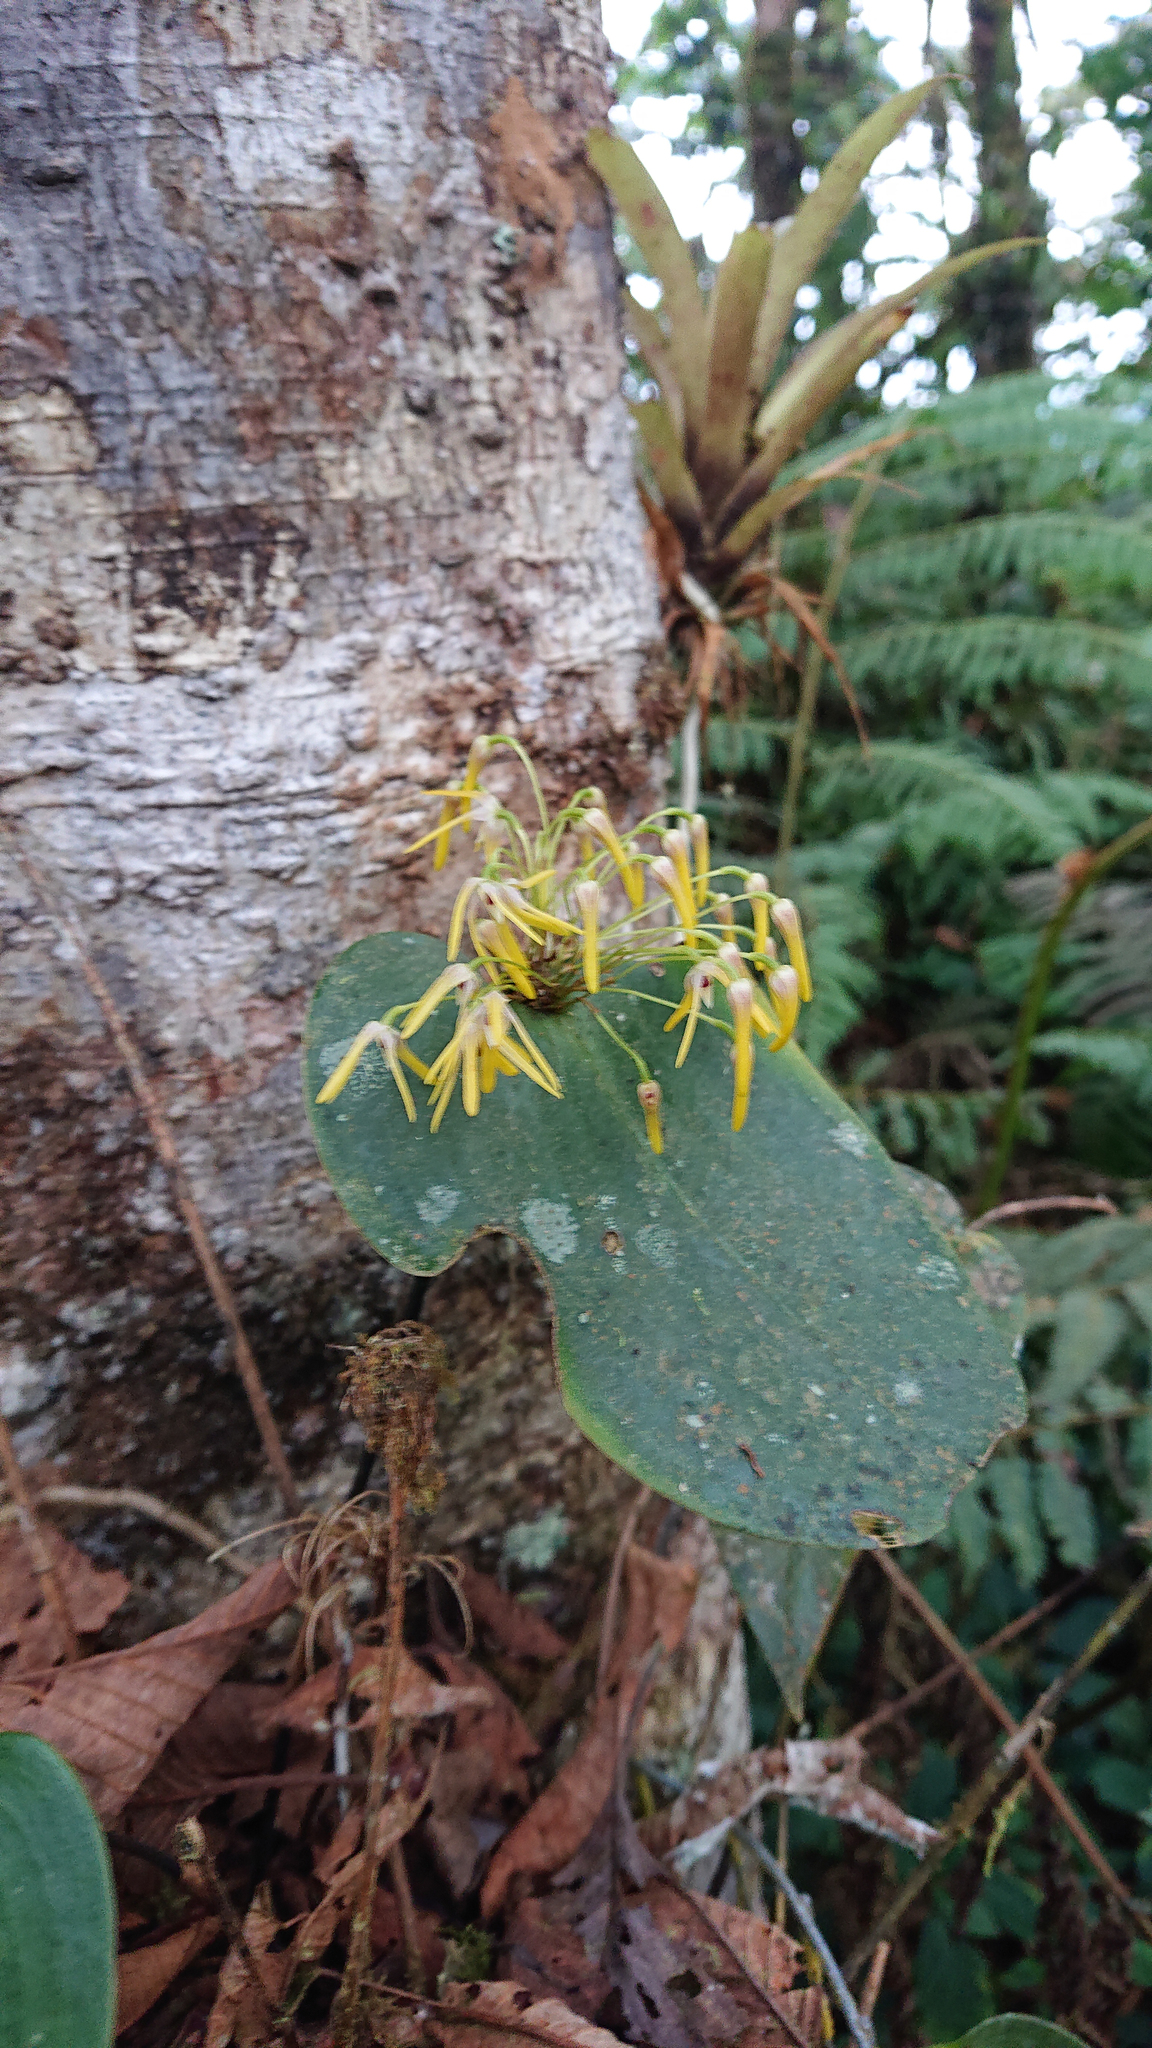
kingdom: Plantae
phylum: Tracheophyta
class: Liliopsida
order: Asparagales
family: Orchidaceae
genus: Pleurothallis
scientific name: Pleurothallis dunstervillei
